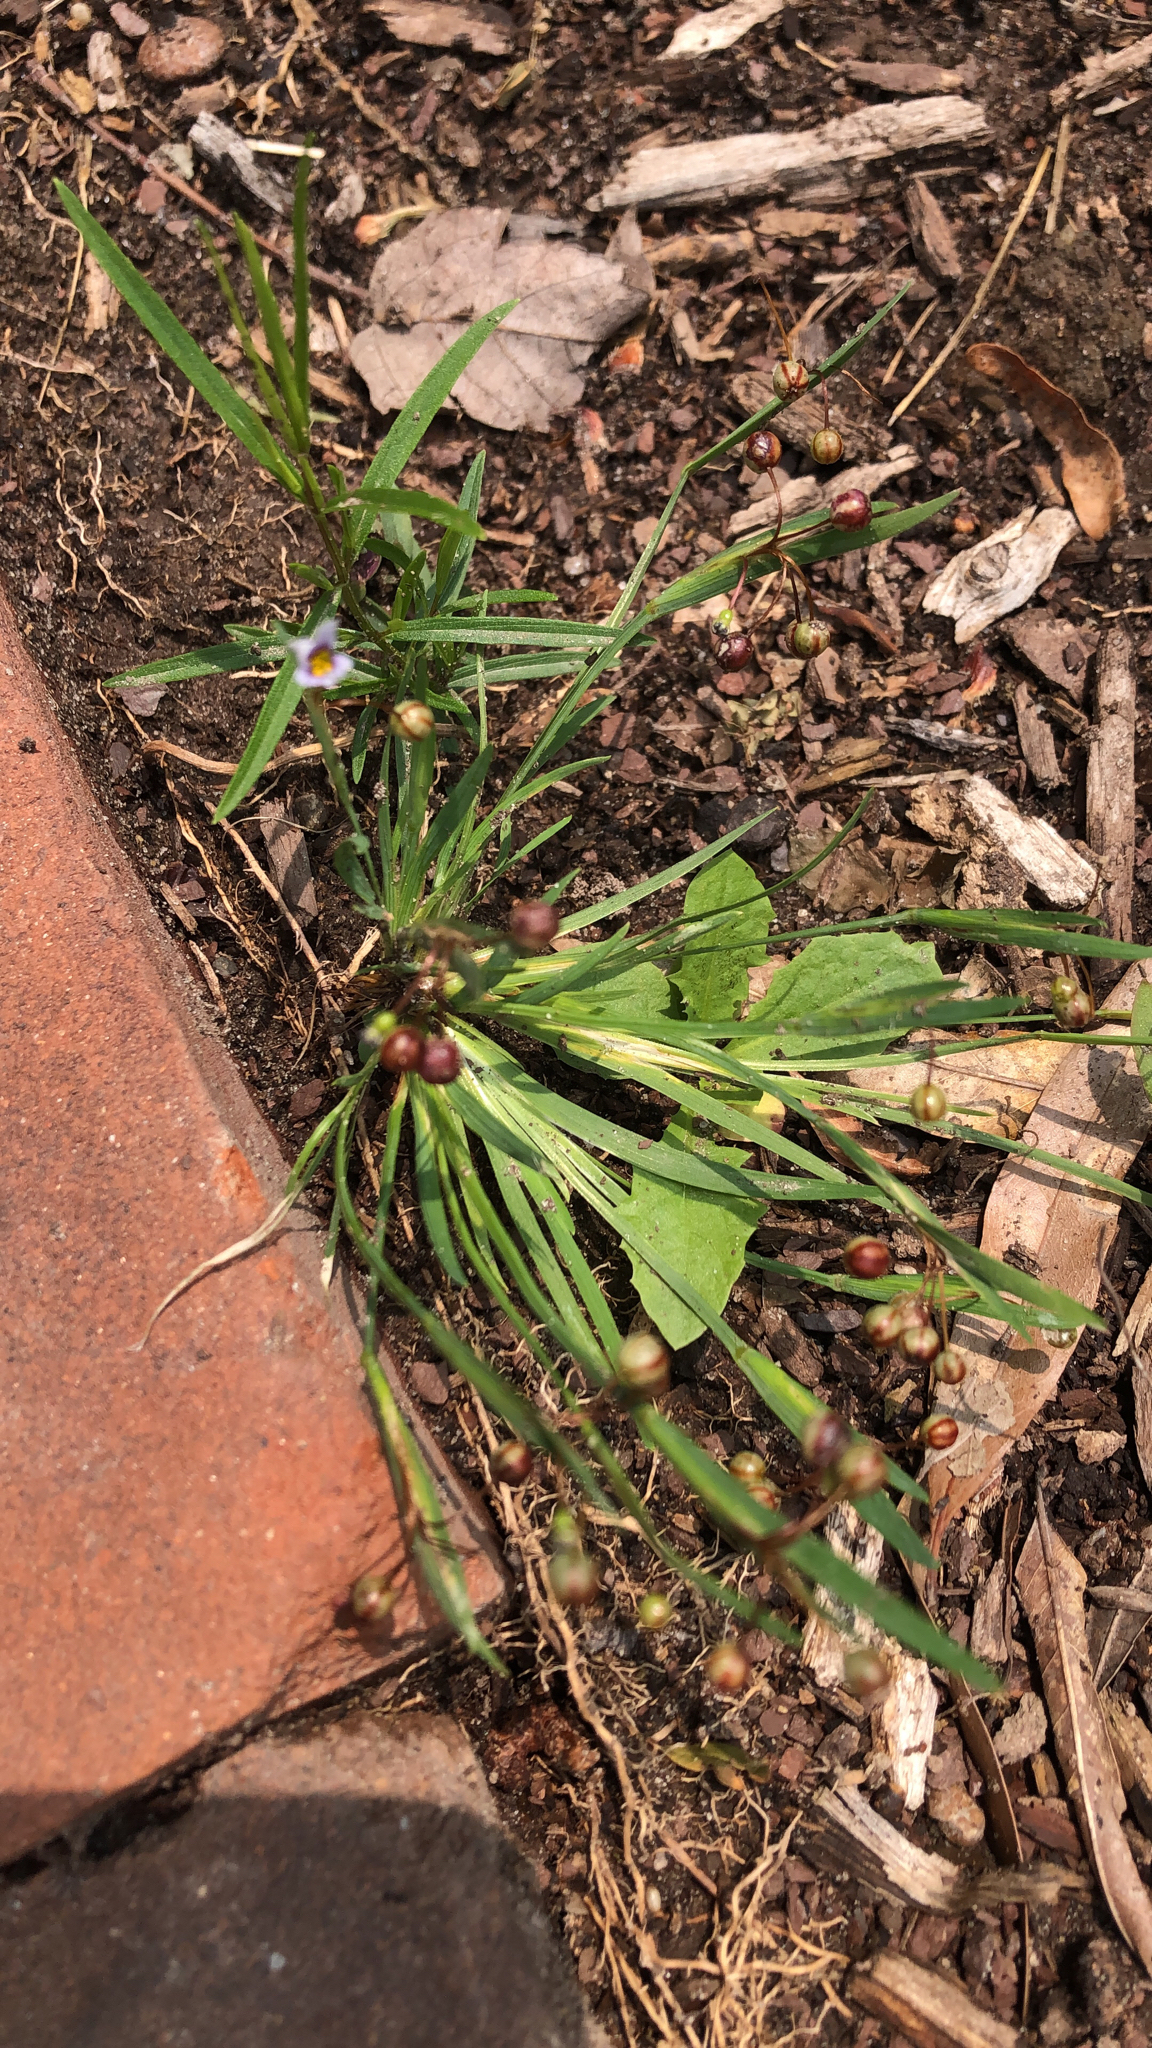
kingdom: Plantae
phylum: Tracheophyta
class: Liliopsida
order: Asparagales
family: Iridaceae
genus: Sisyrinchium
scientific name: Sisyrinchium micranthum
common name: Bermuda pigroot
